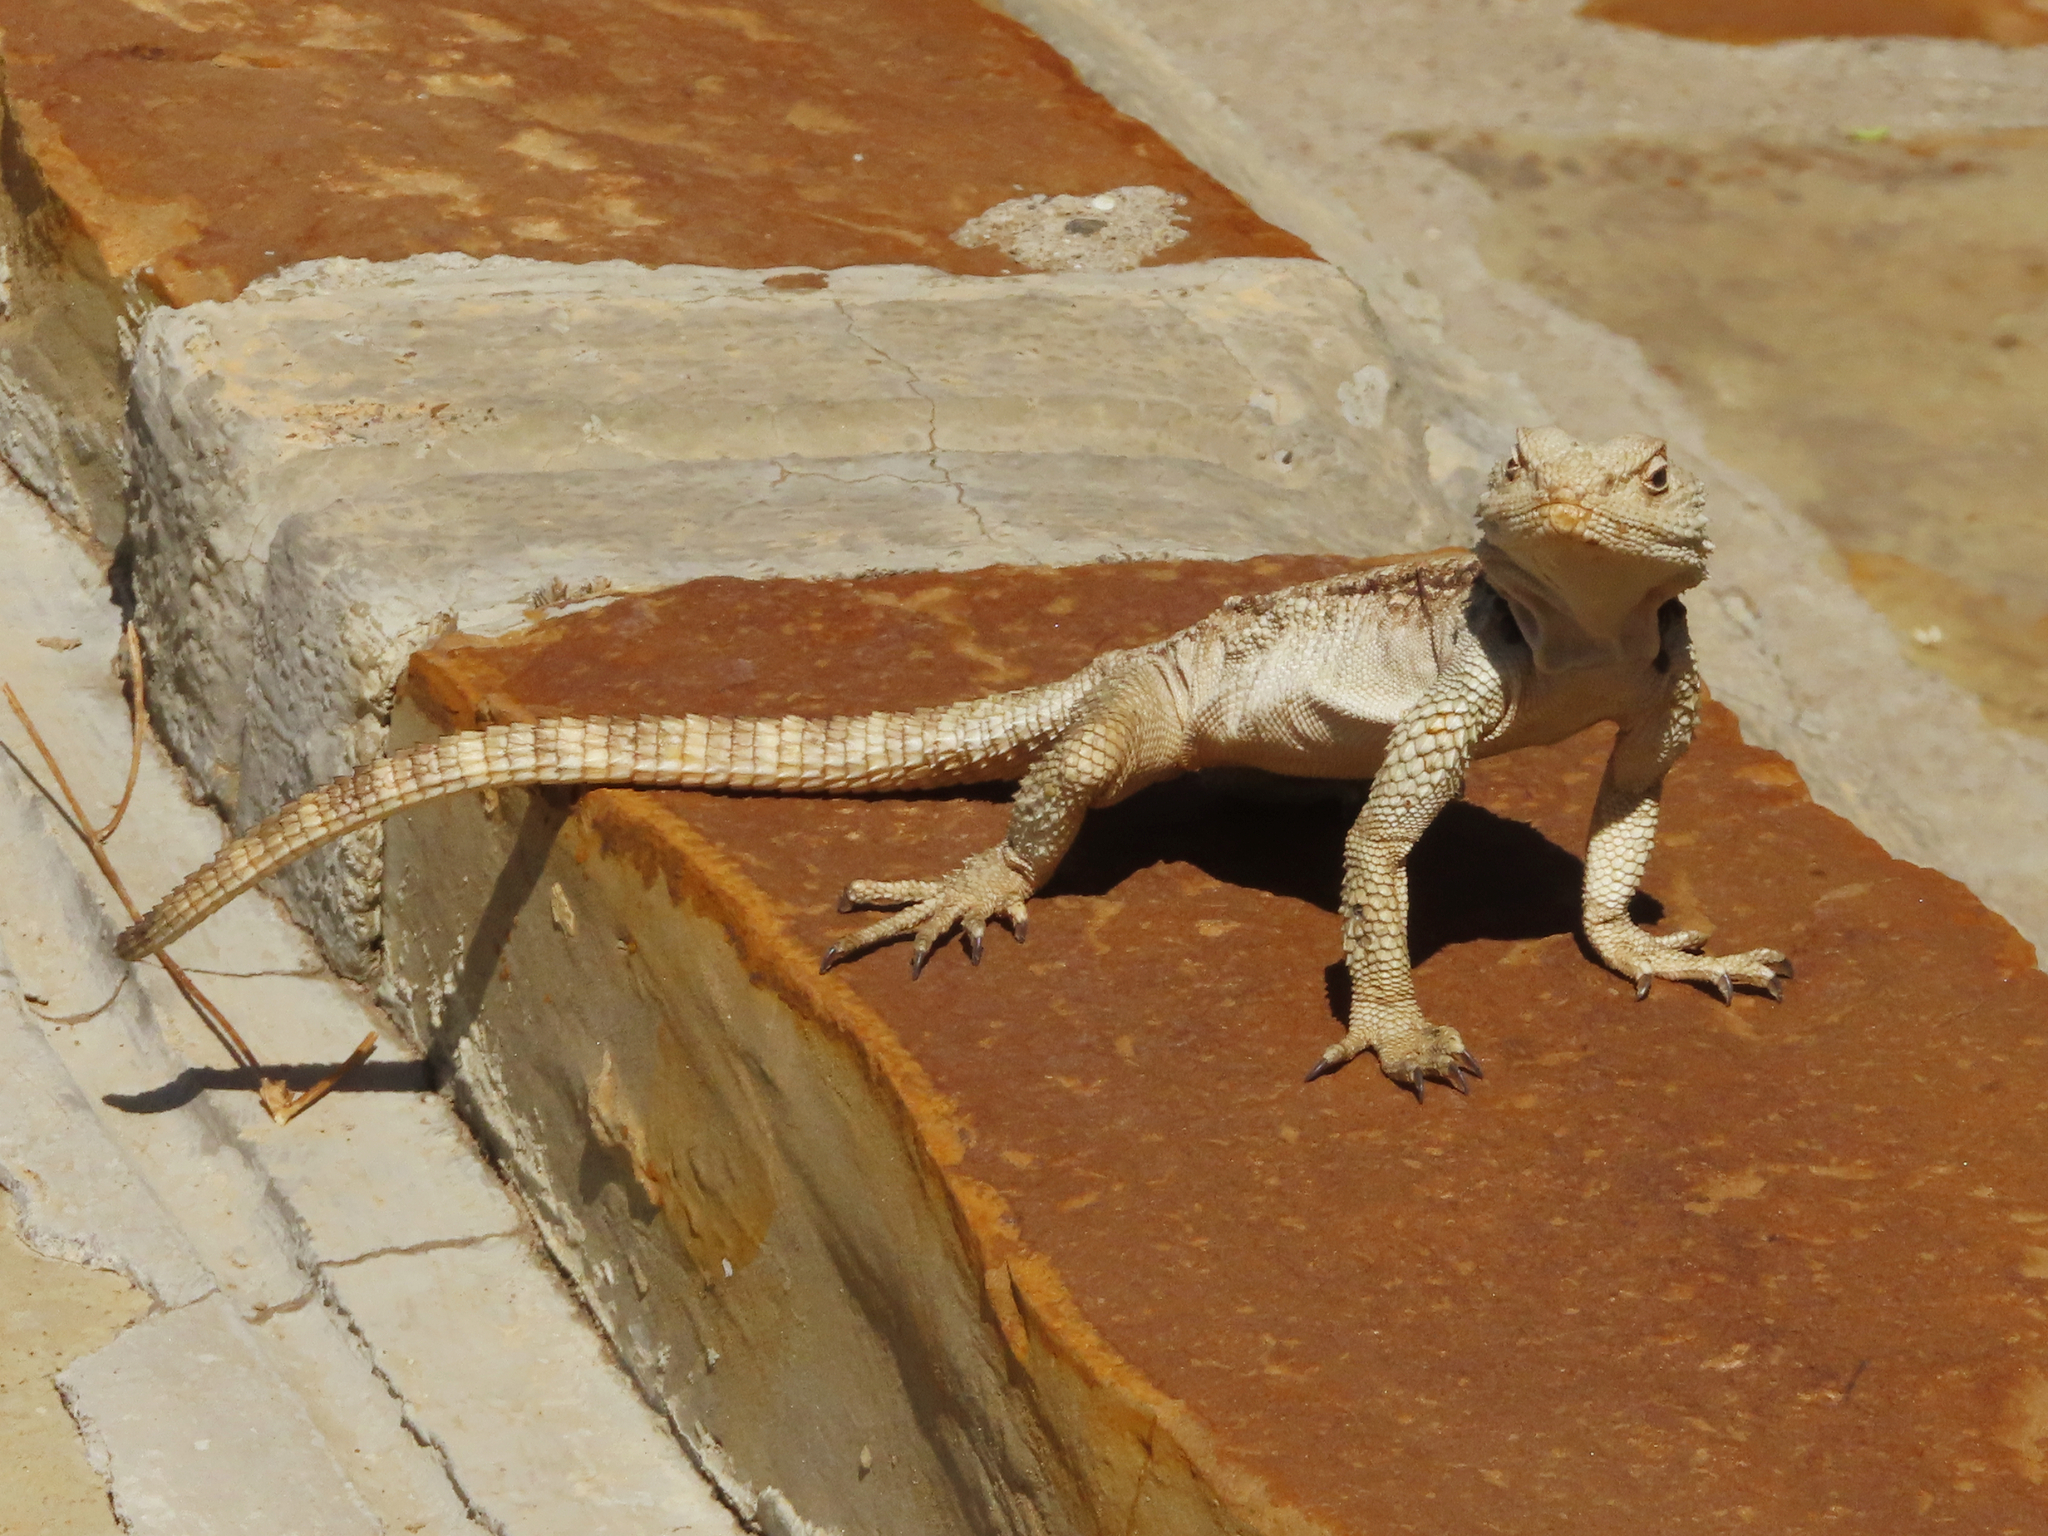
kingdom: Animalia
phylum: Chordata
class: Squamata
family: Agamidae
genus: Paralaudakia
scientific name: Paralaudakia caucasia
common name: Caucasian agama
